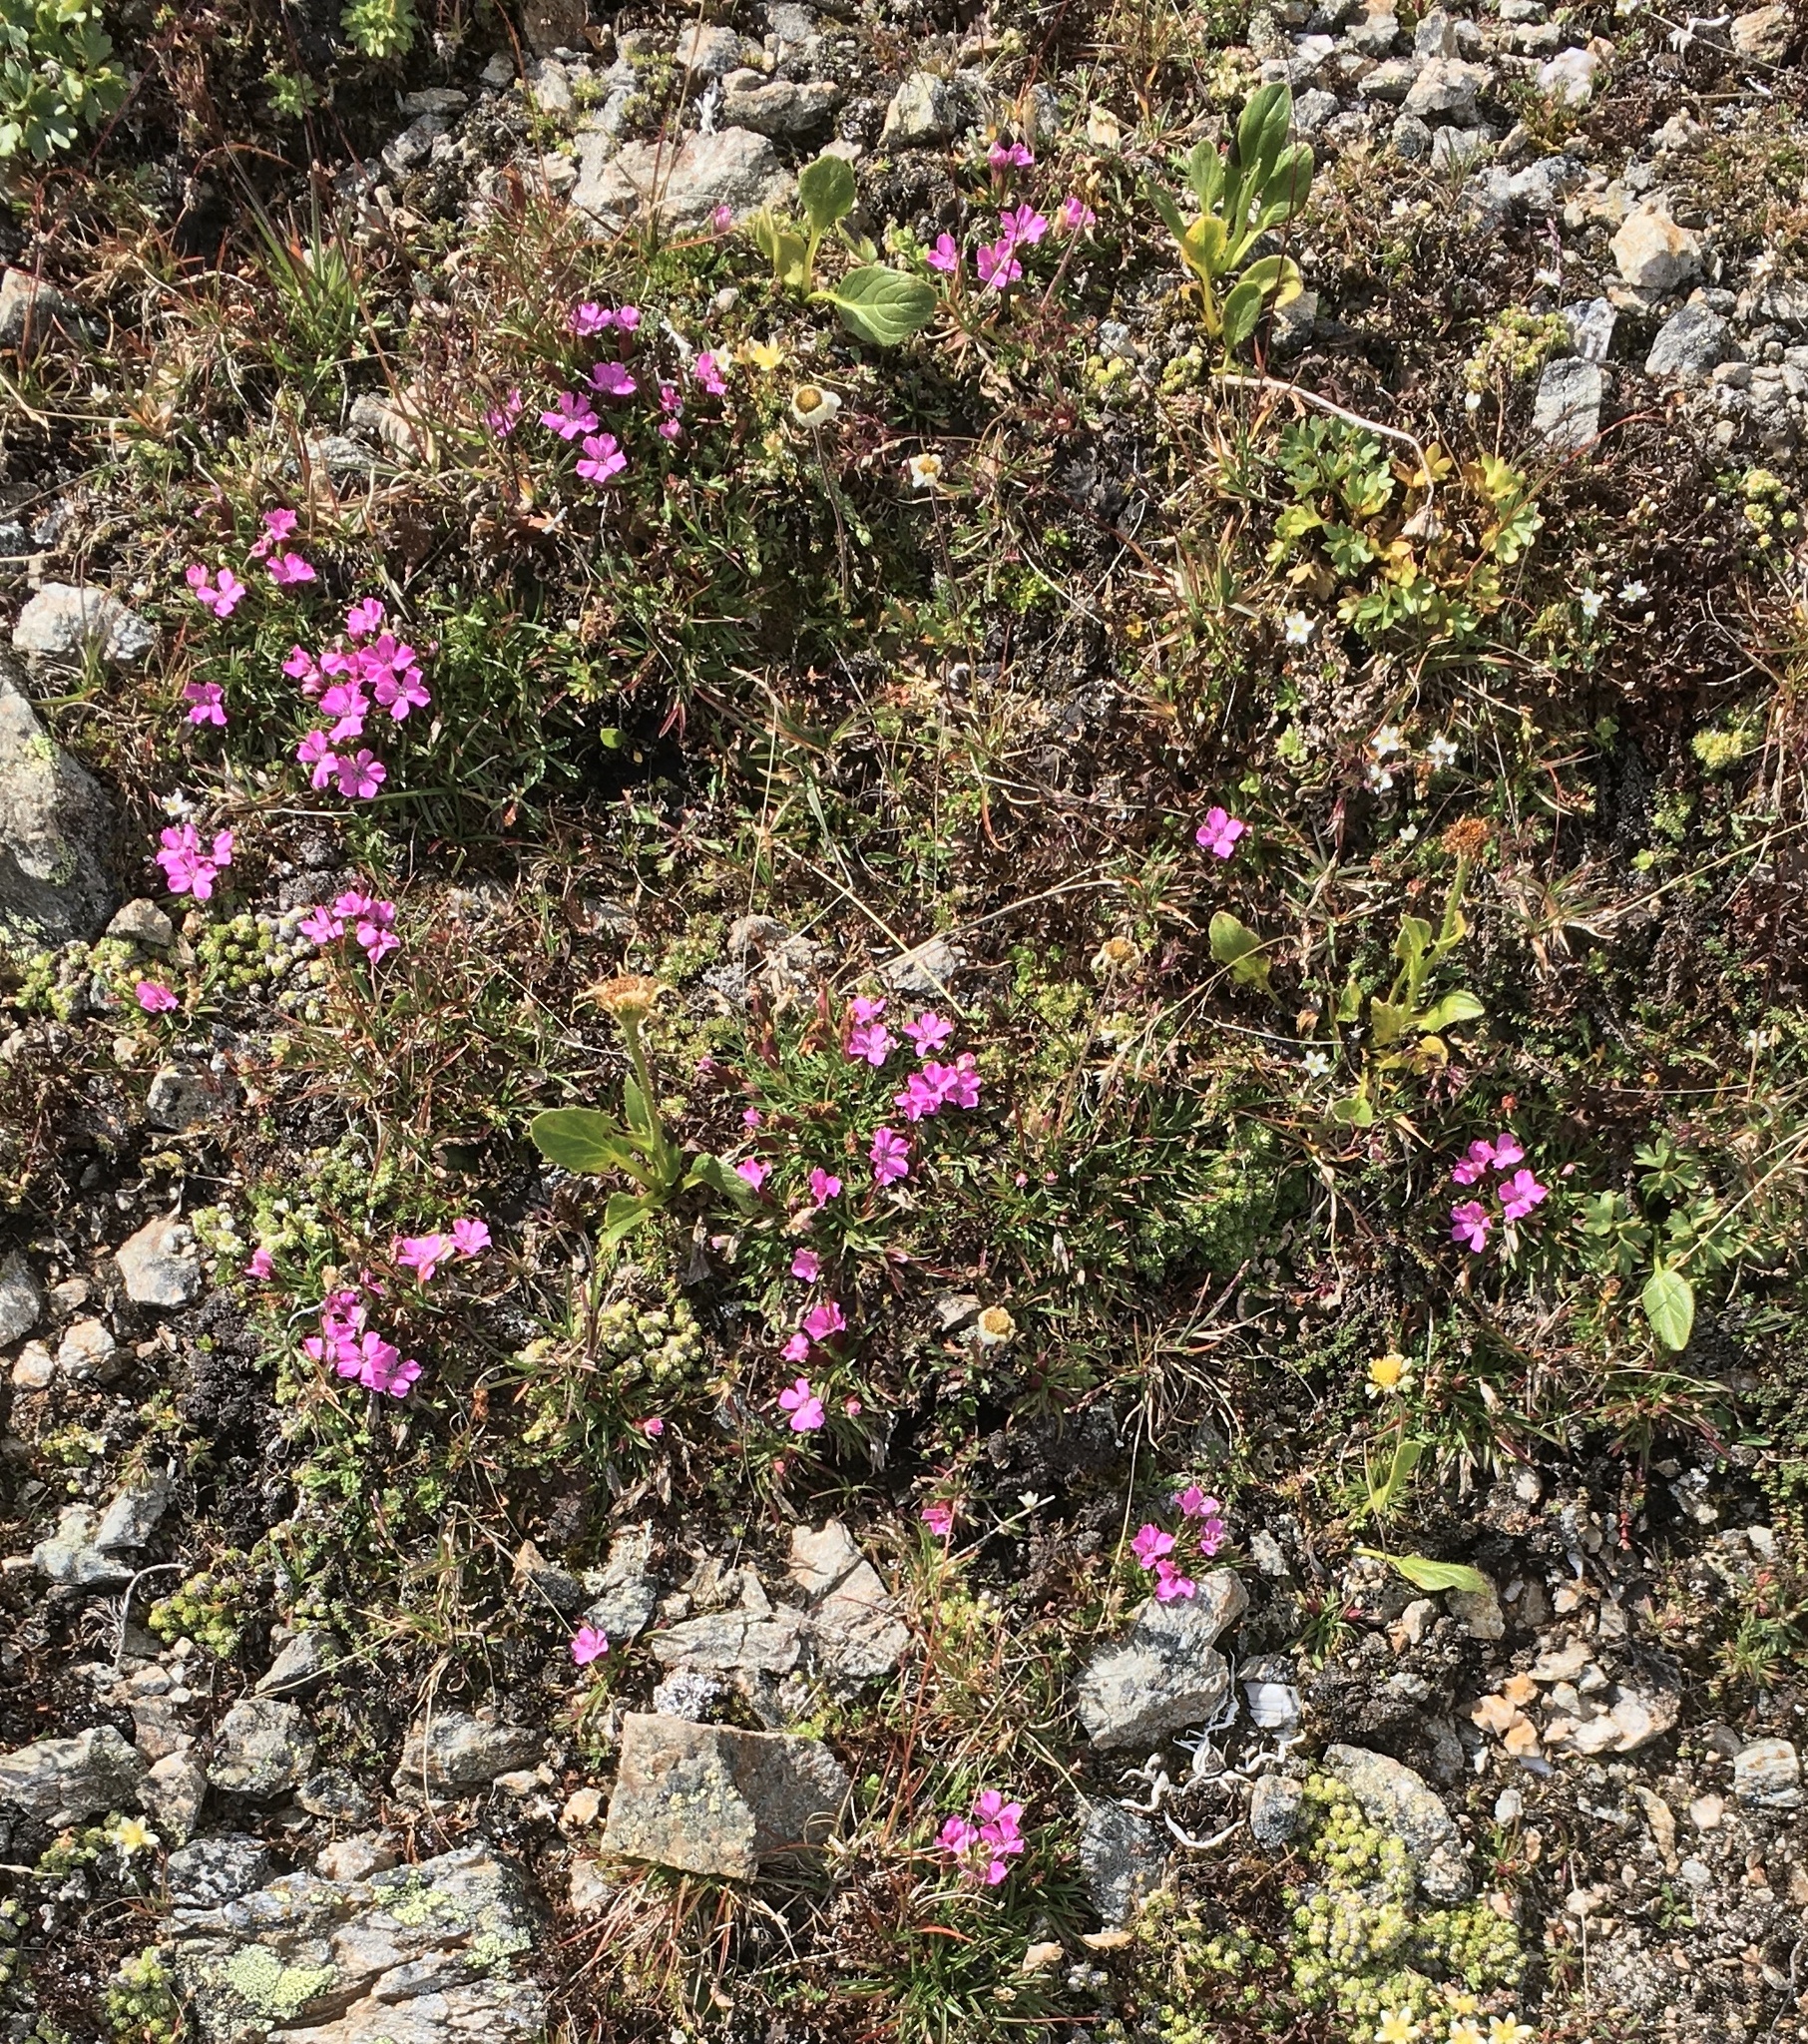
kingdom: Plantae
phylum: Tracheophyta
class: Magnoliopsida
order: Caryophyllales
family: Caryophyllaceae
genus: Dianthus
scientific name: Dianthus glacialis
